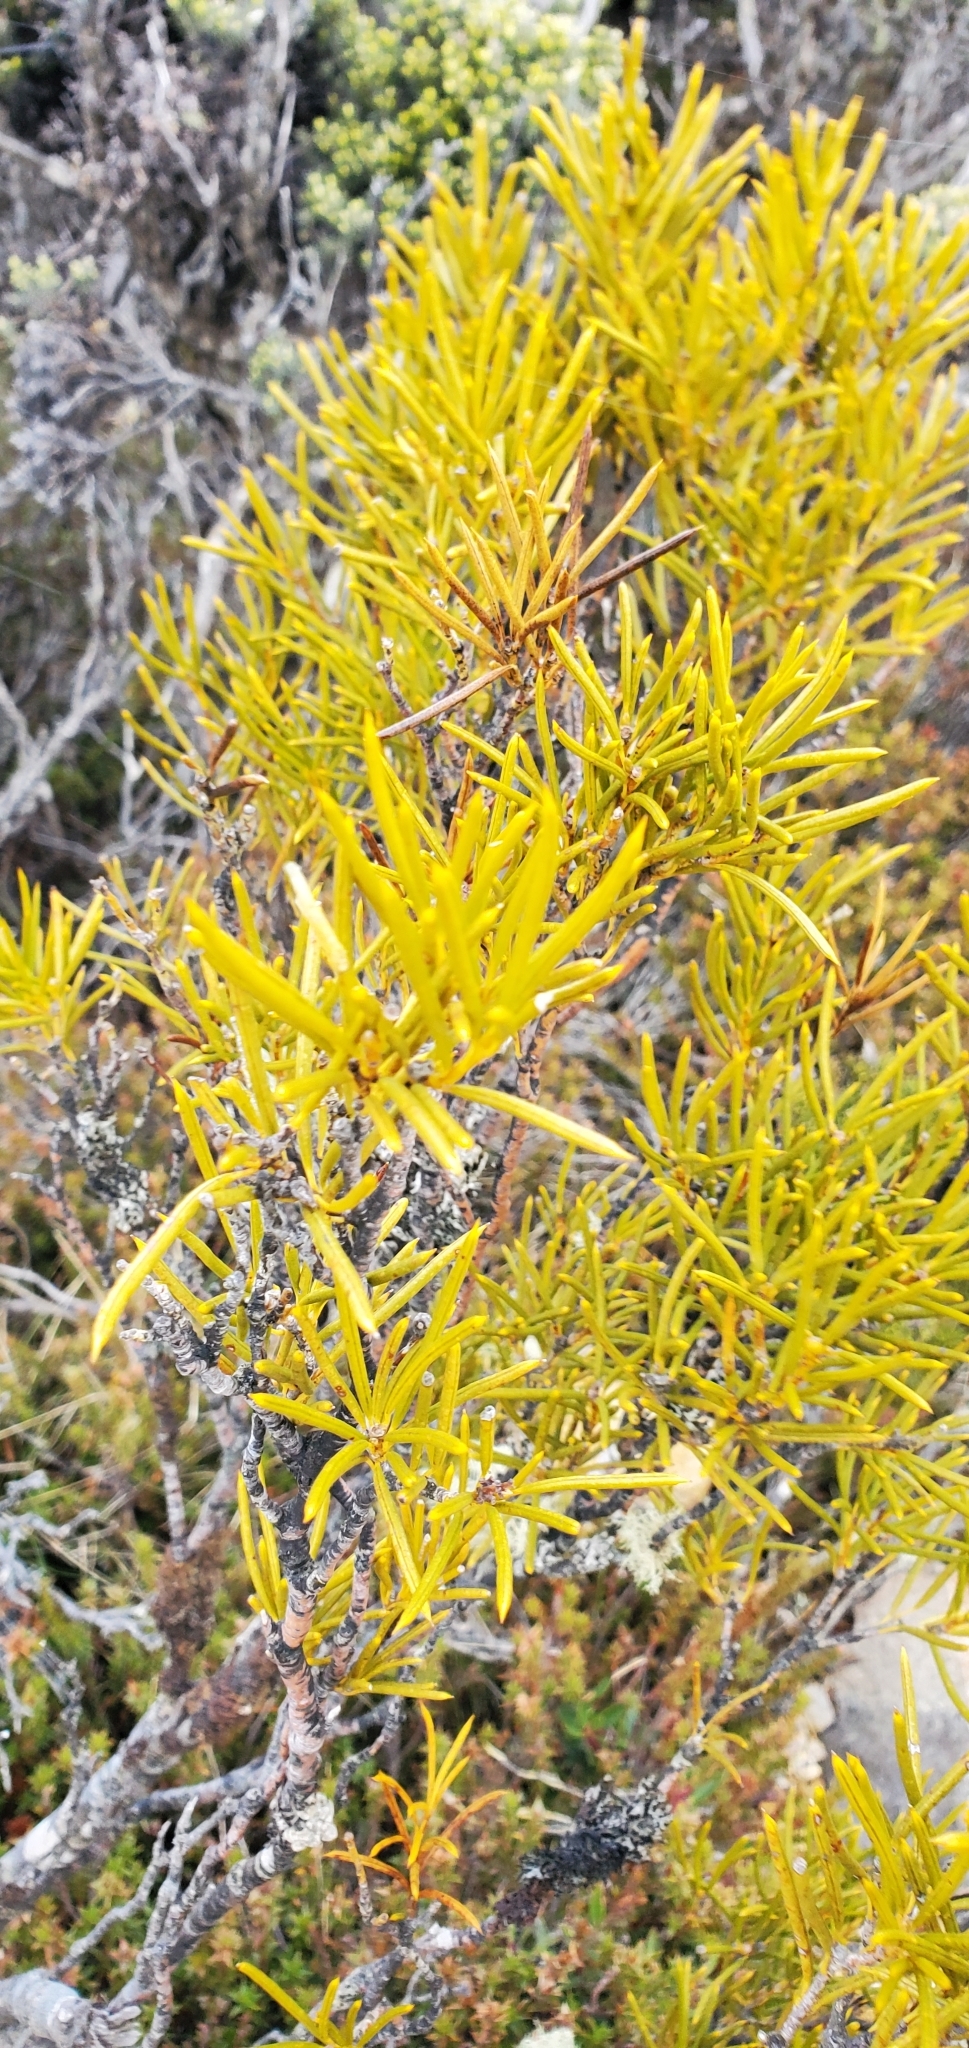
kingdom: Plantae
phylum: Tracheophyta
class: Magnoliopsida
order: Proteales
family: Proteaceae
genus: Orites
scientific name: Orites acicularis
